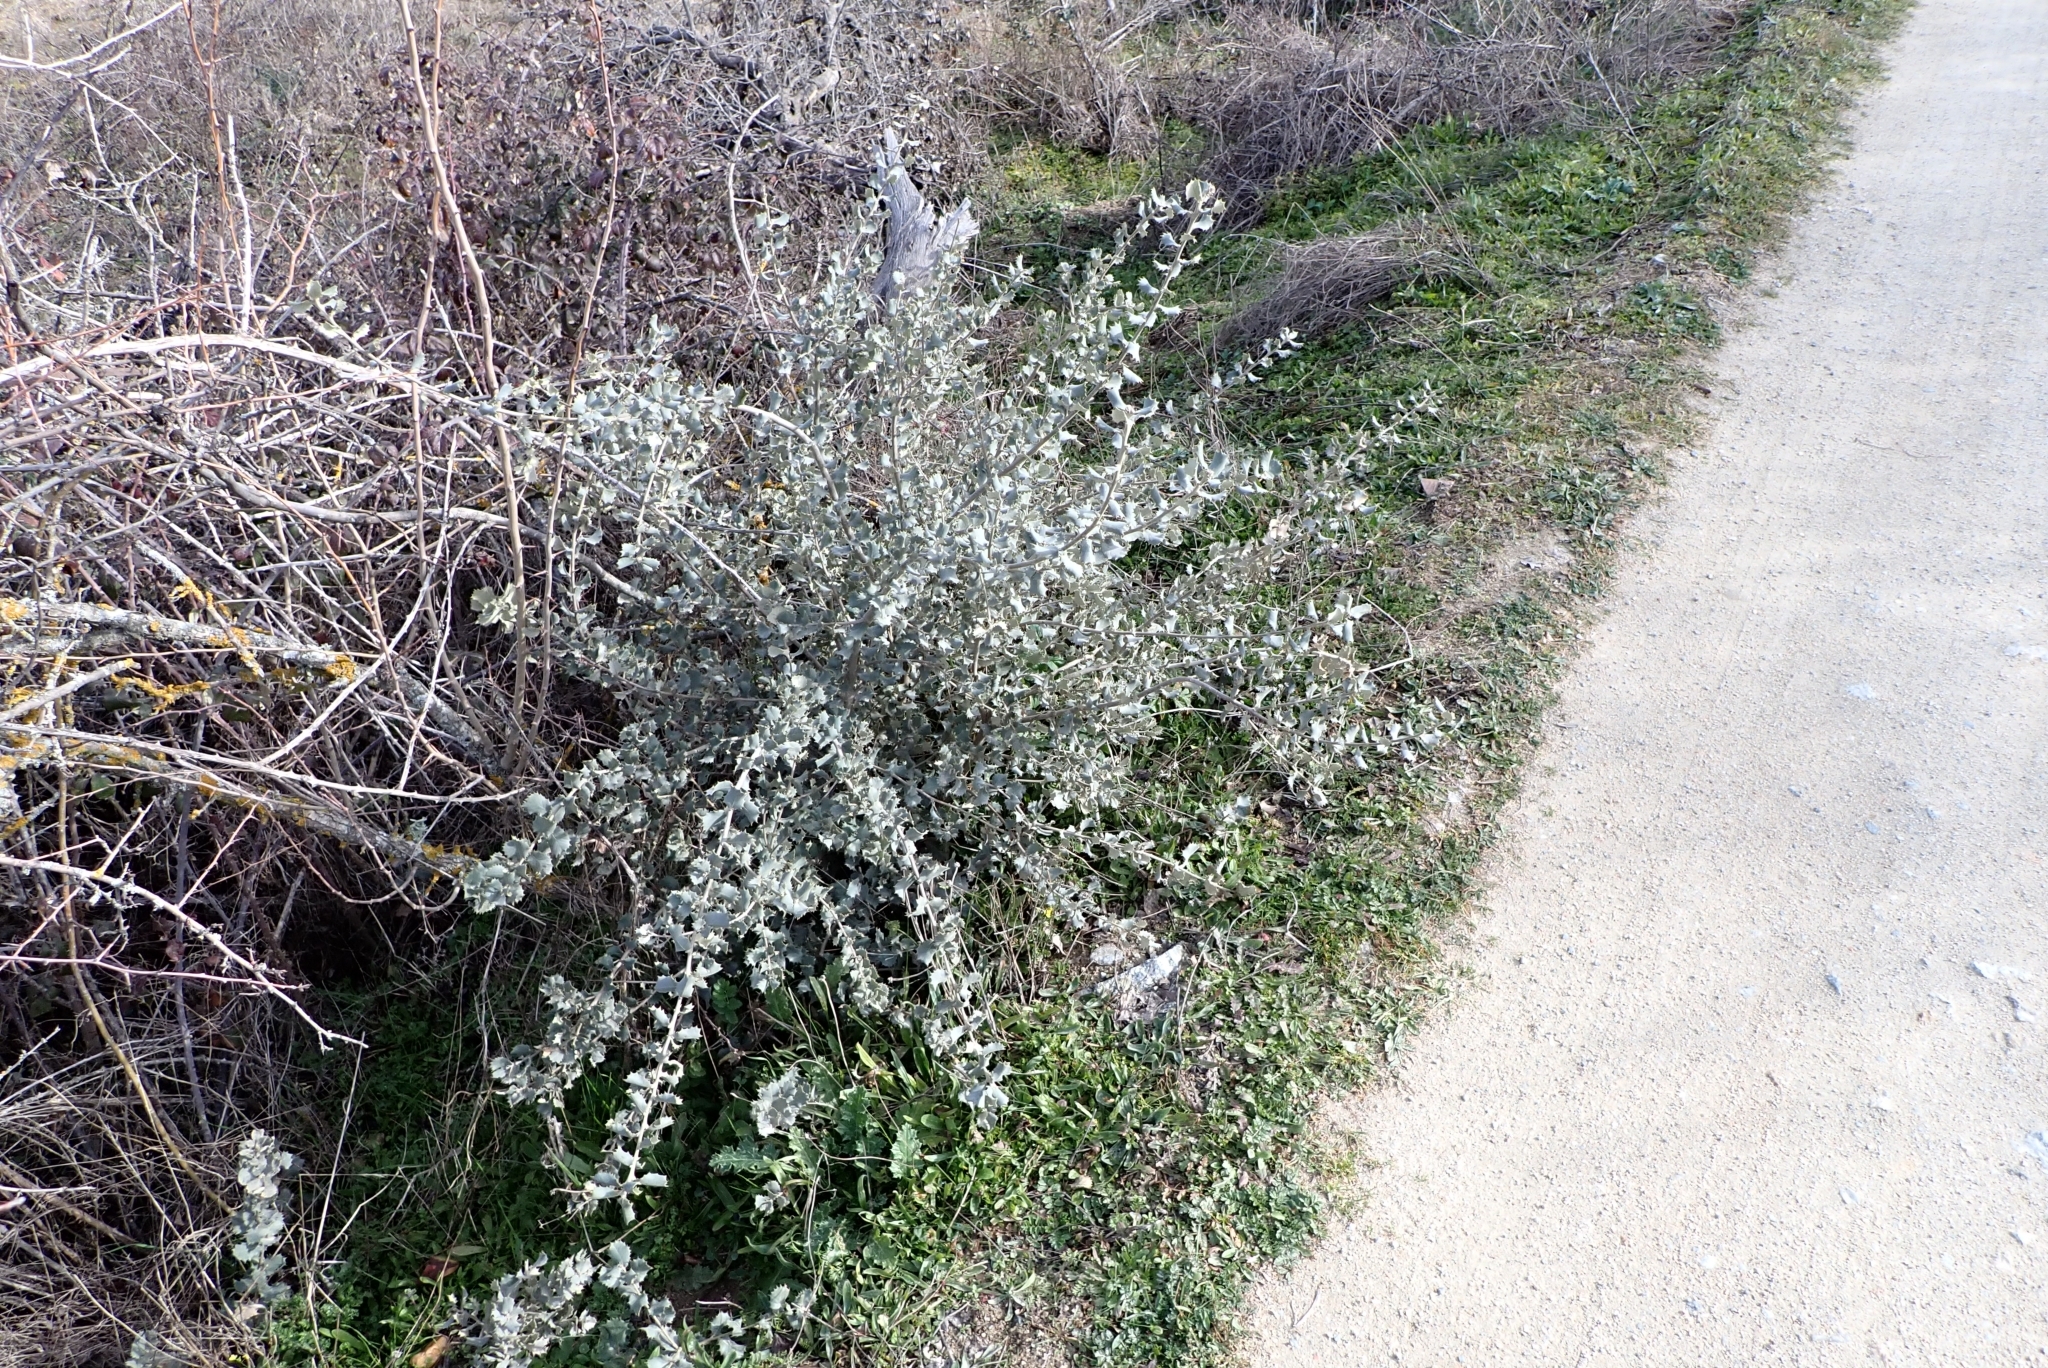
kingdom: Plantae
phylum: Tracheophyta
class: Magnoliopsida
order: Fagales
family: Fagaceae
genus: Quercus
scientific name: Quercus rotundifolia
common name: Holm oak
